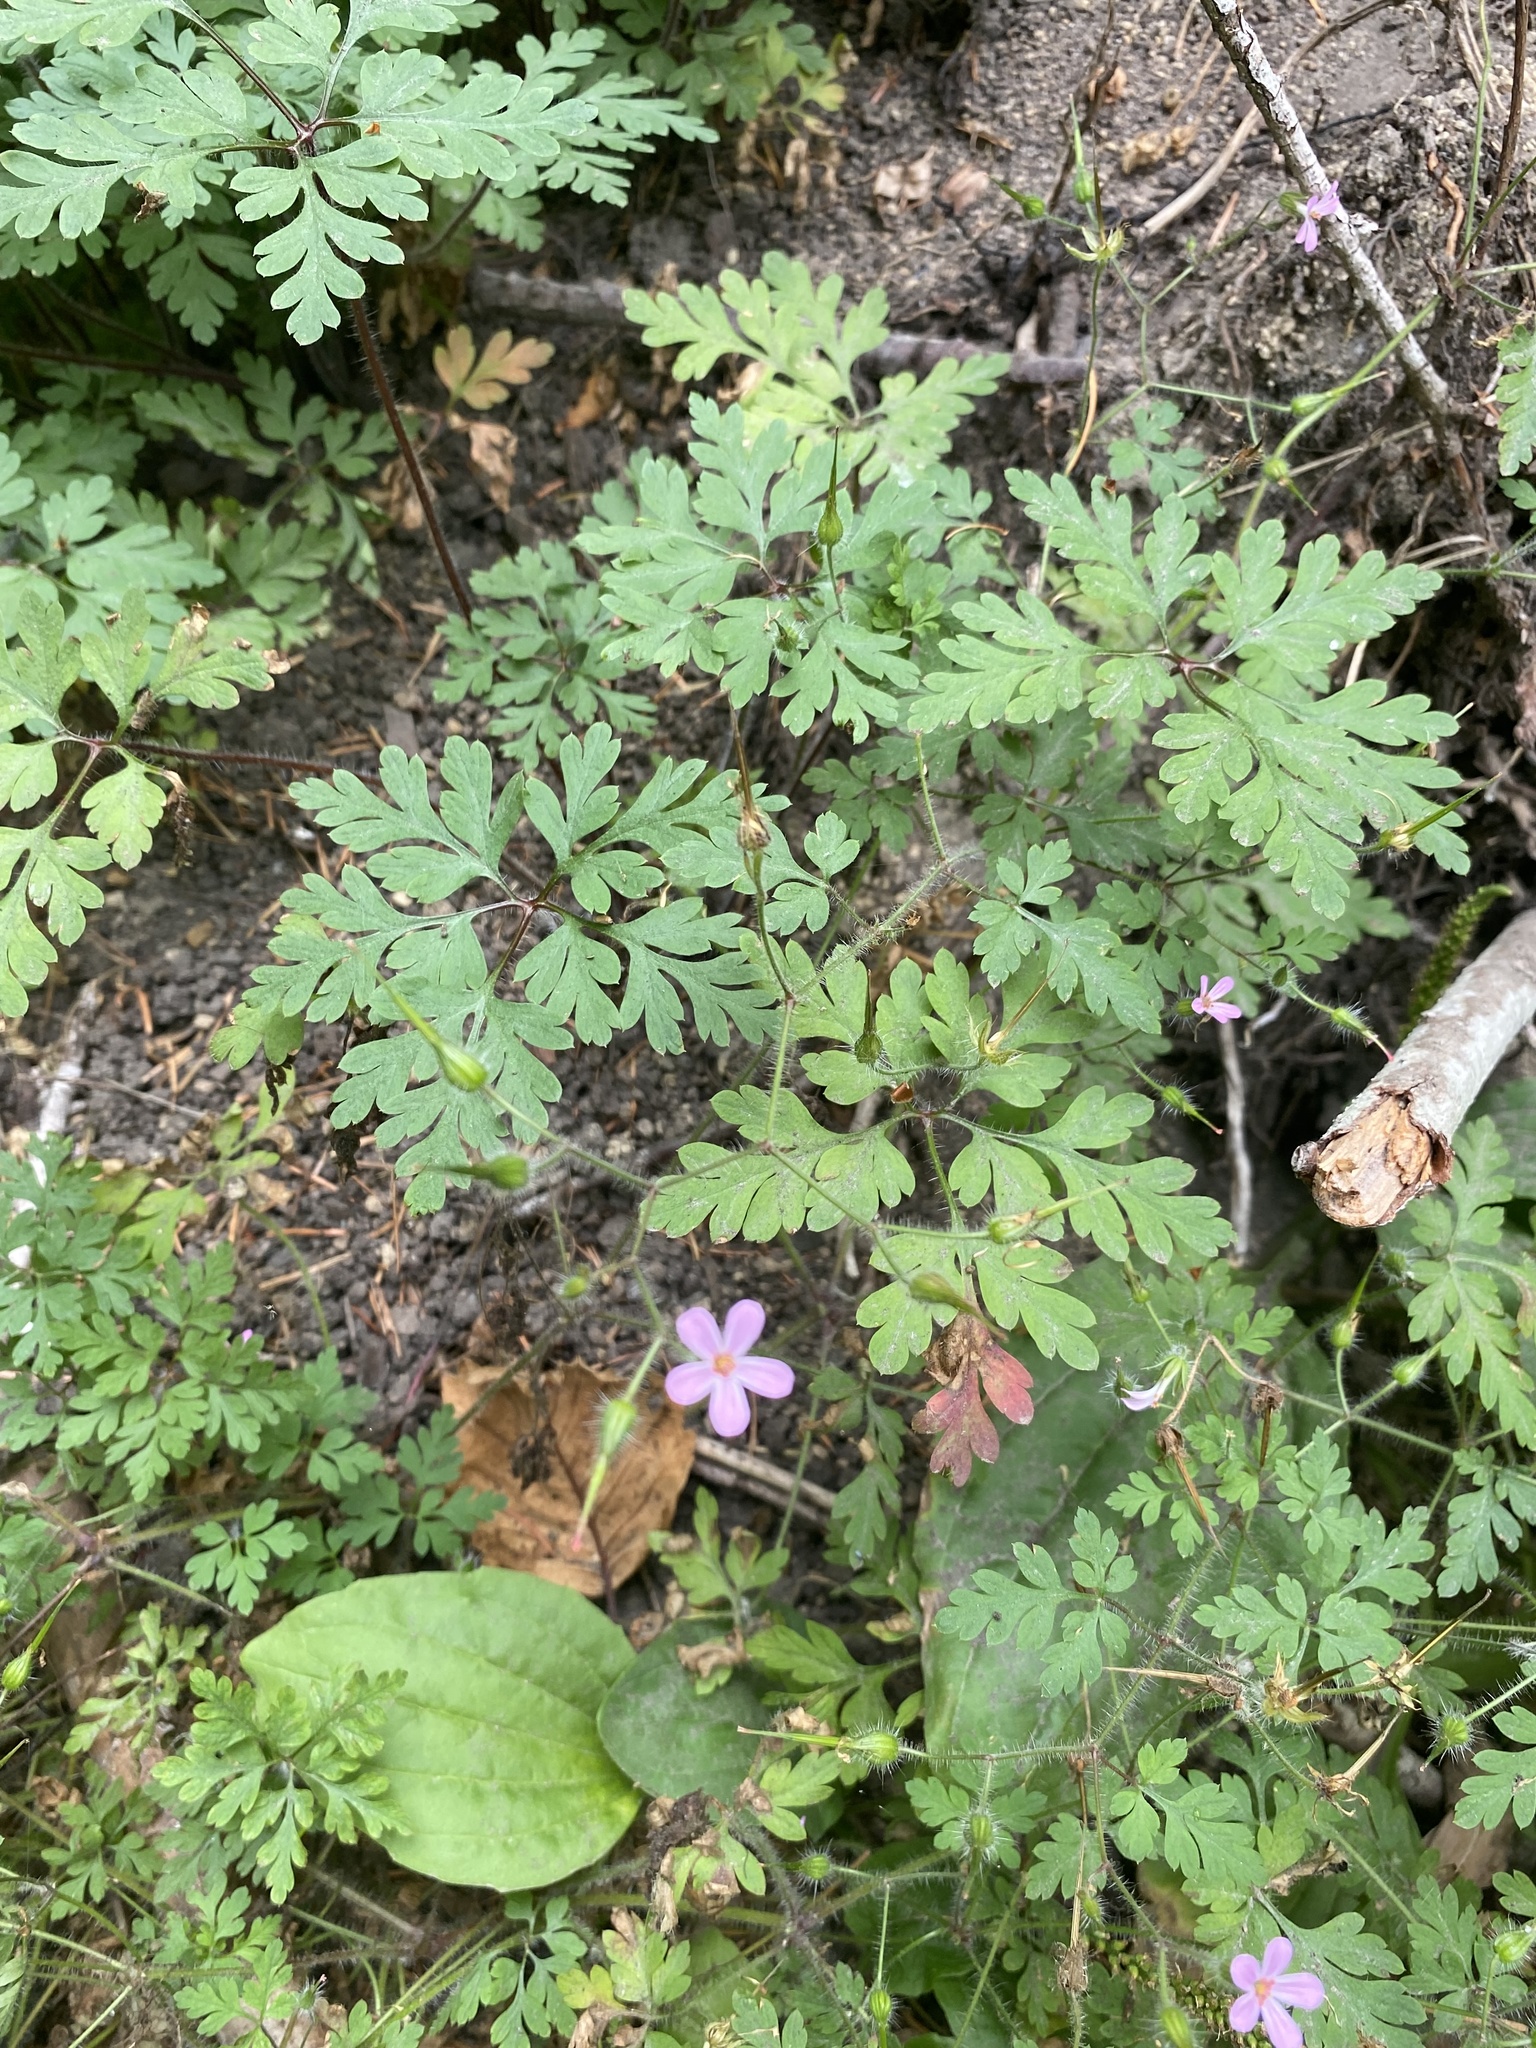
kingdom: Plantae
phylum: Tracheophyta
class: Magnoliopsida
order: Geraniales
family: Geraniaceae
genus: Geranium
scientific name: Geranium robertianum
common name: Herb-robert
